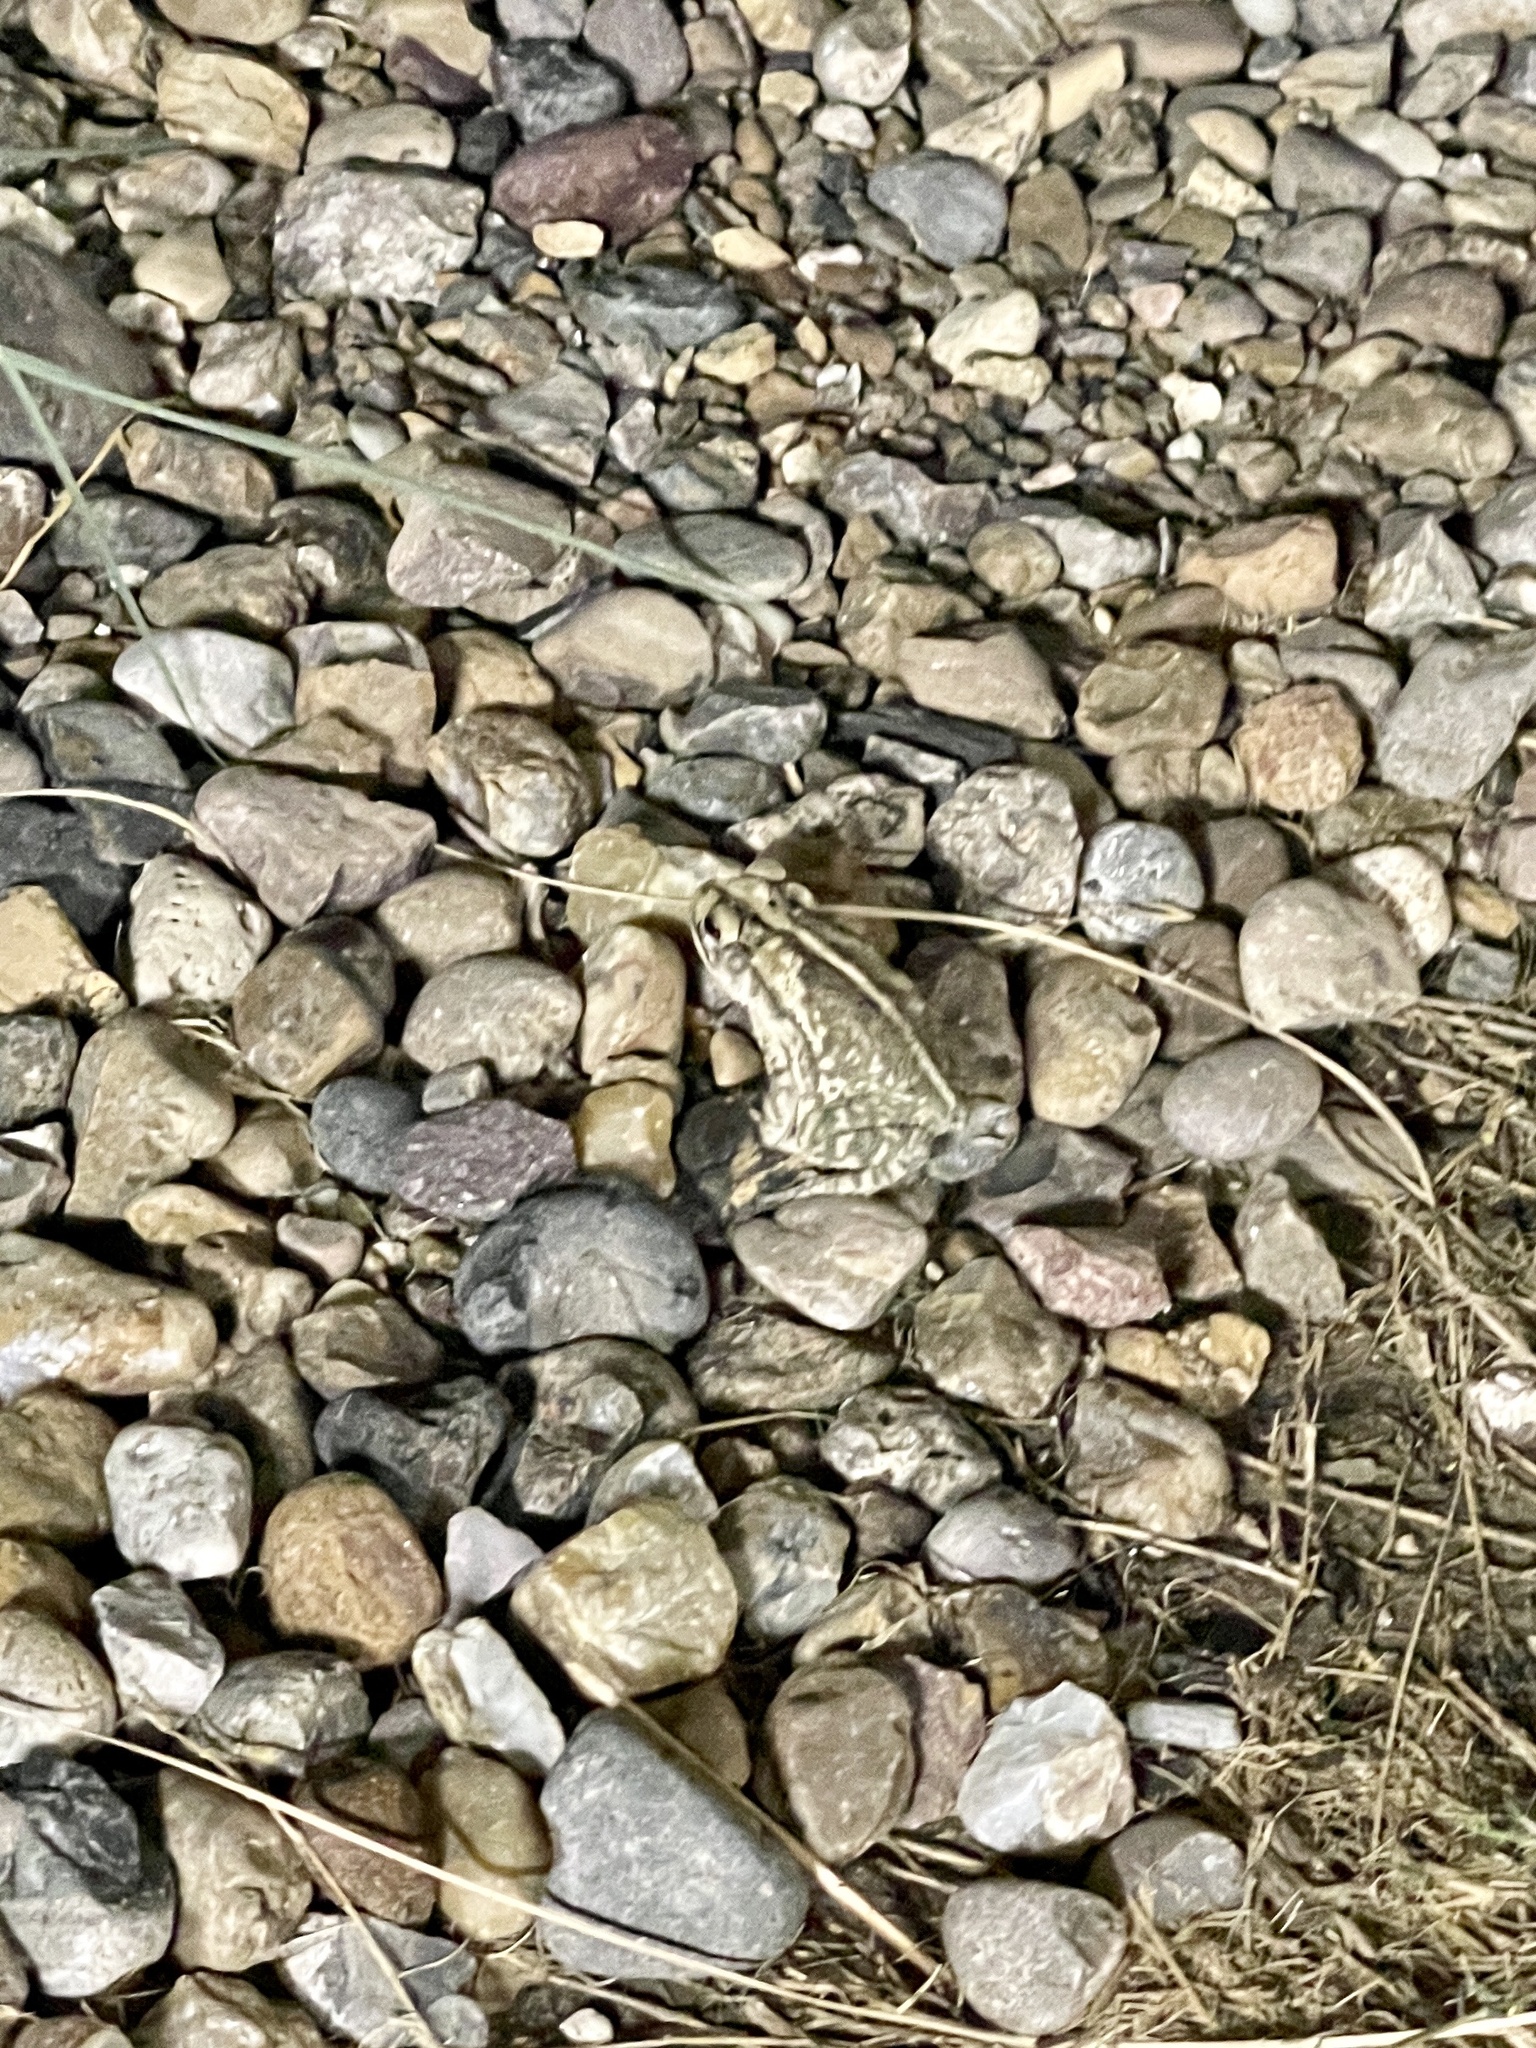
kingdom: Animalia
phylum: Chordata
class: Amphibia
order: Anura
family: Bufonidae
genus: Incilius
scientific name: Incilius nebulifer
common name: Gulf coast toad
